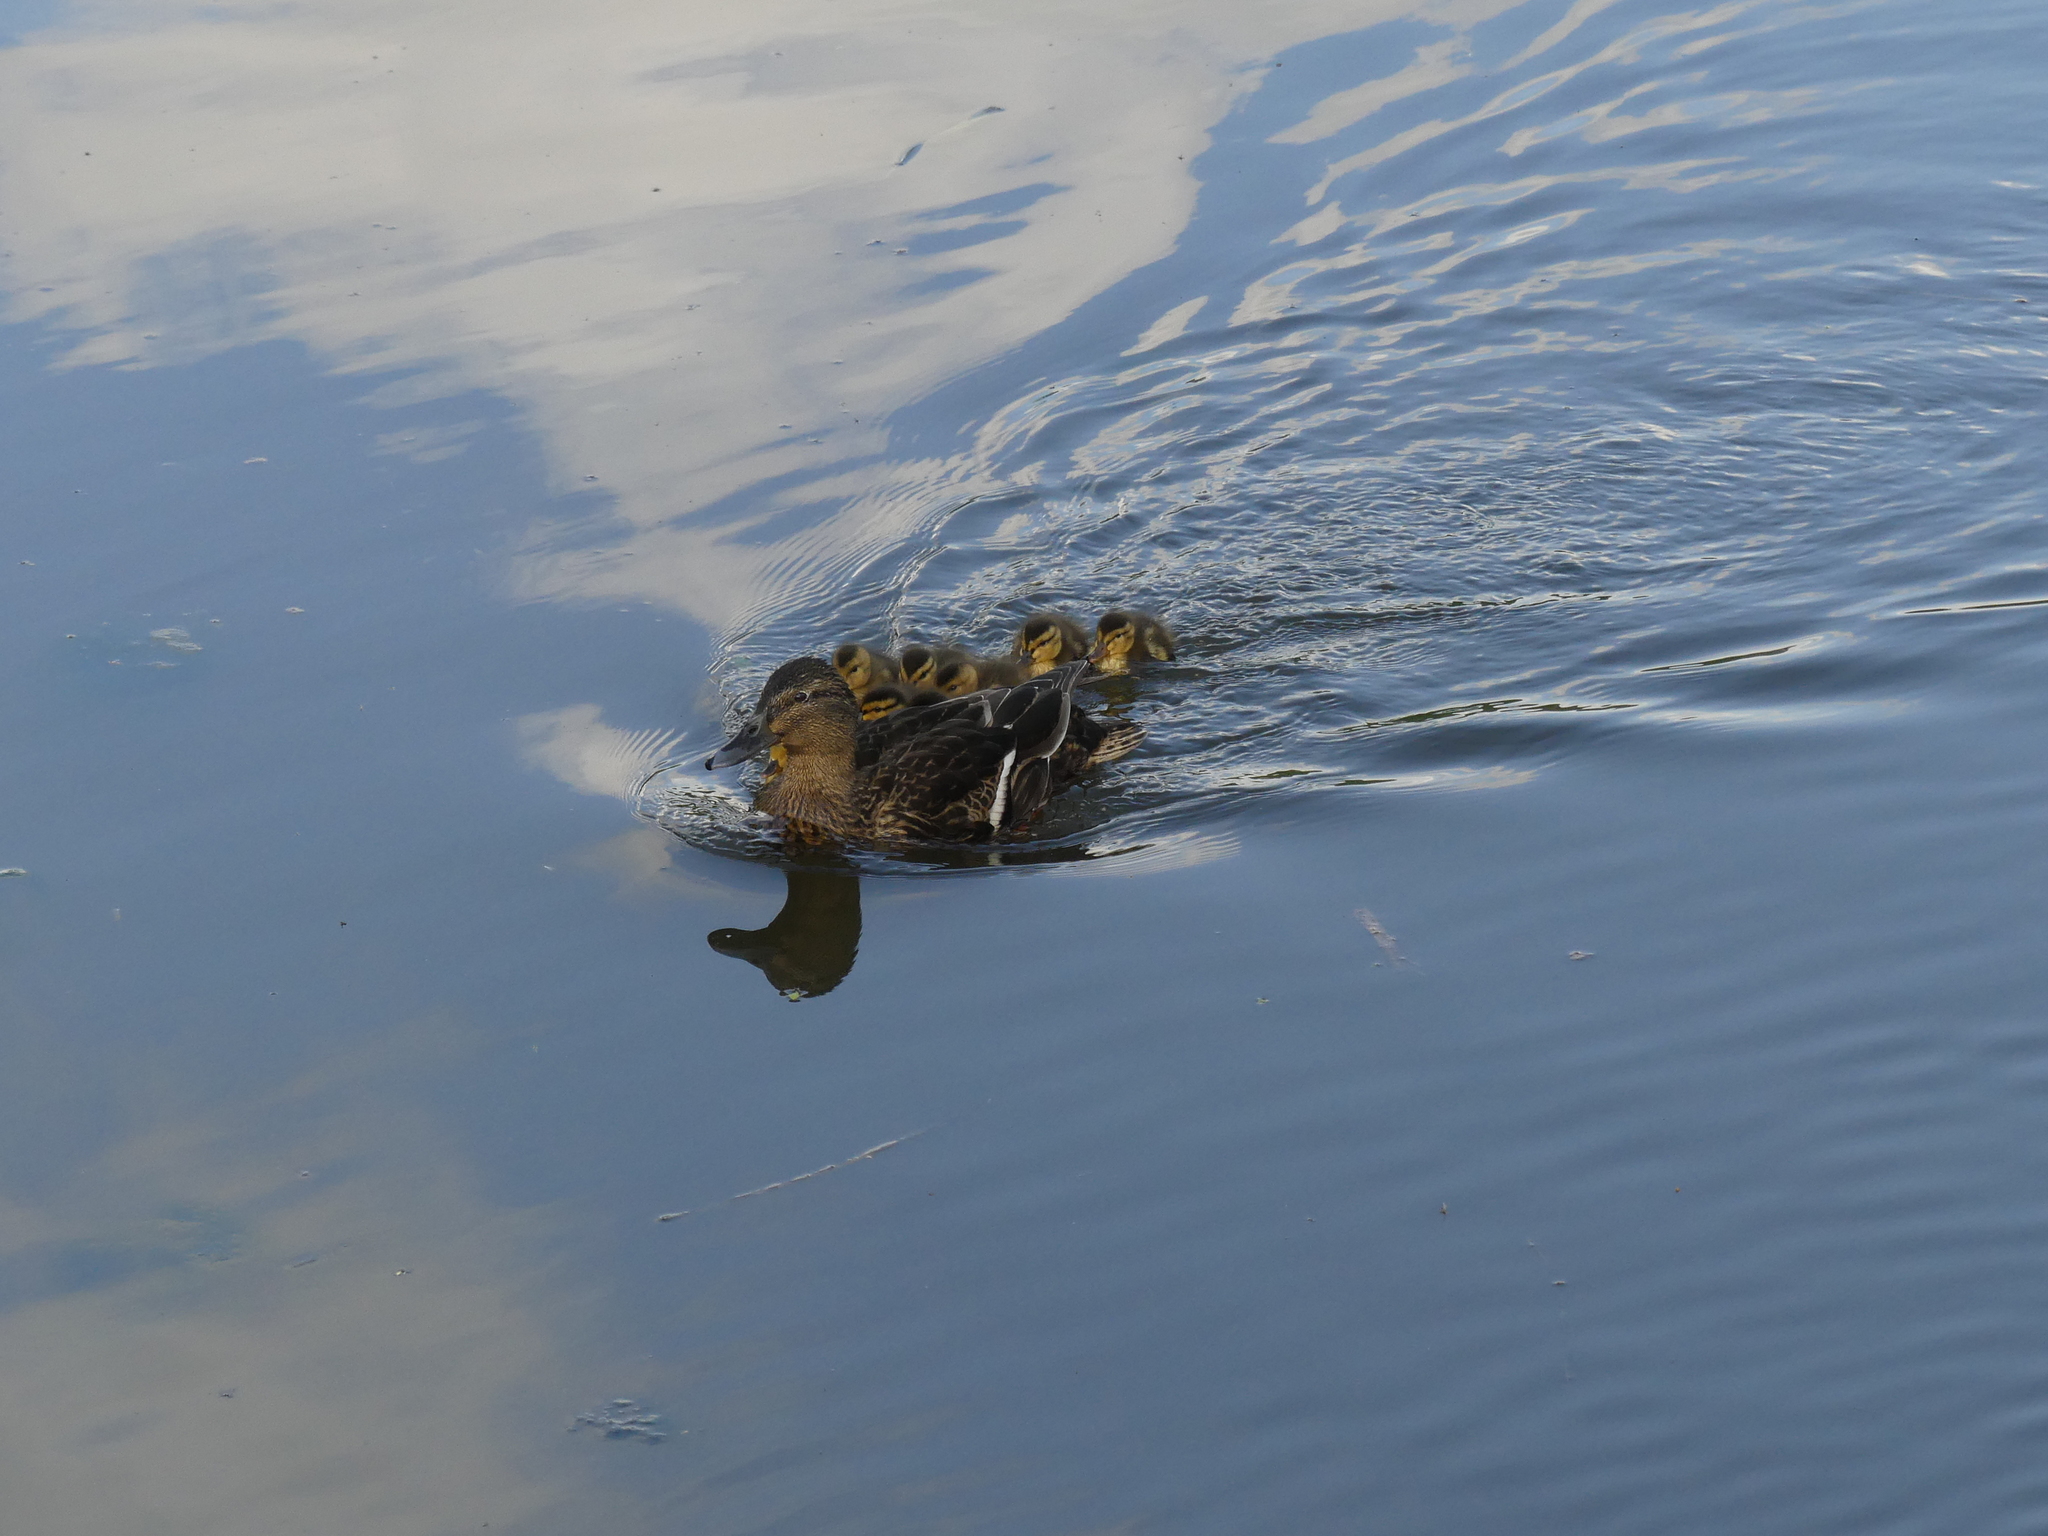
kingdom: Animalia
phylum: Chordata
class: Aves
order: Anseriformes
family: Anatidae
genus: Anas
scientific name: Anas platyrhynchos
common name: Mallard
